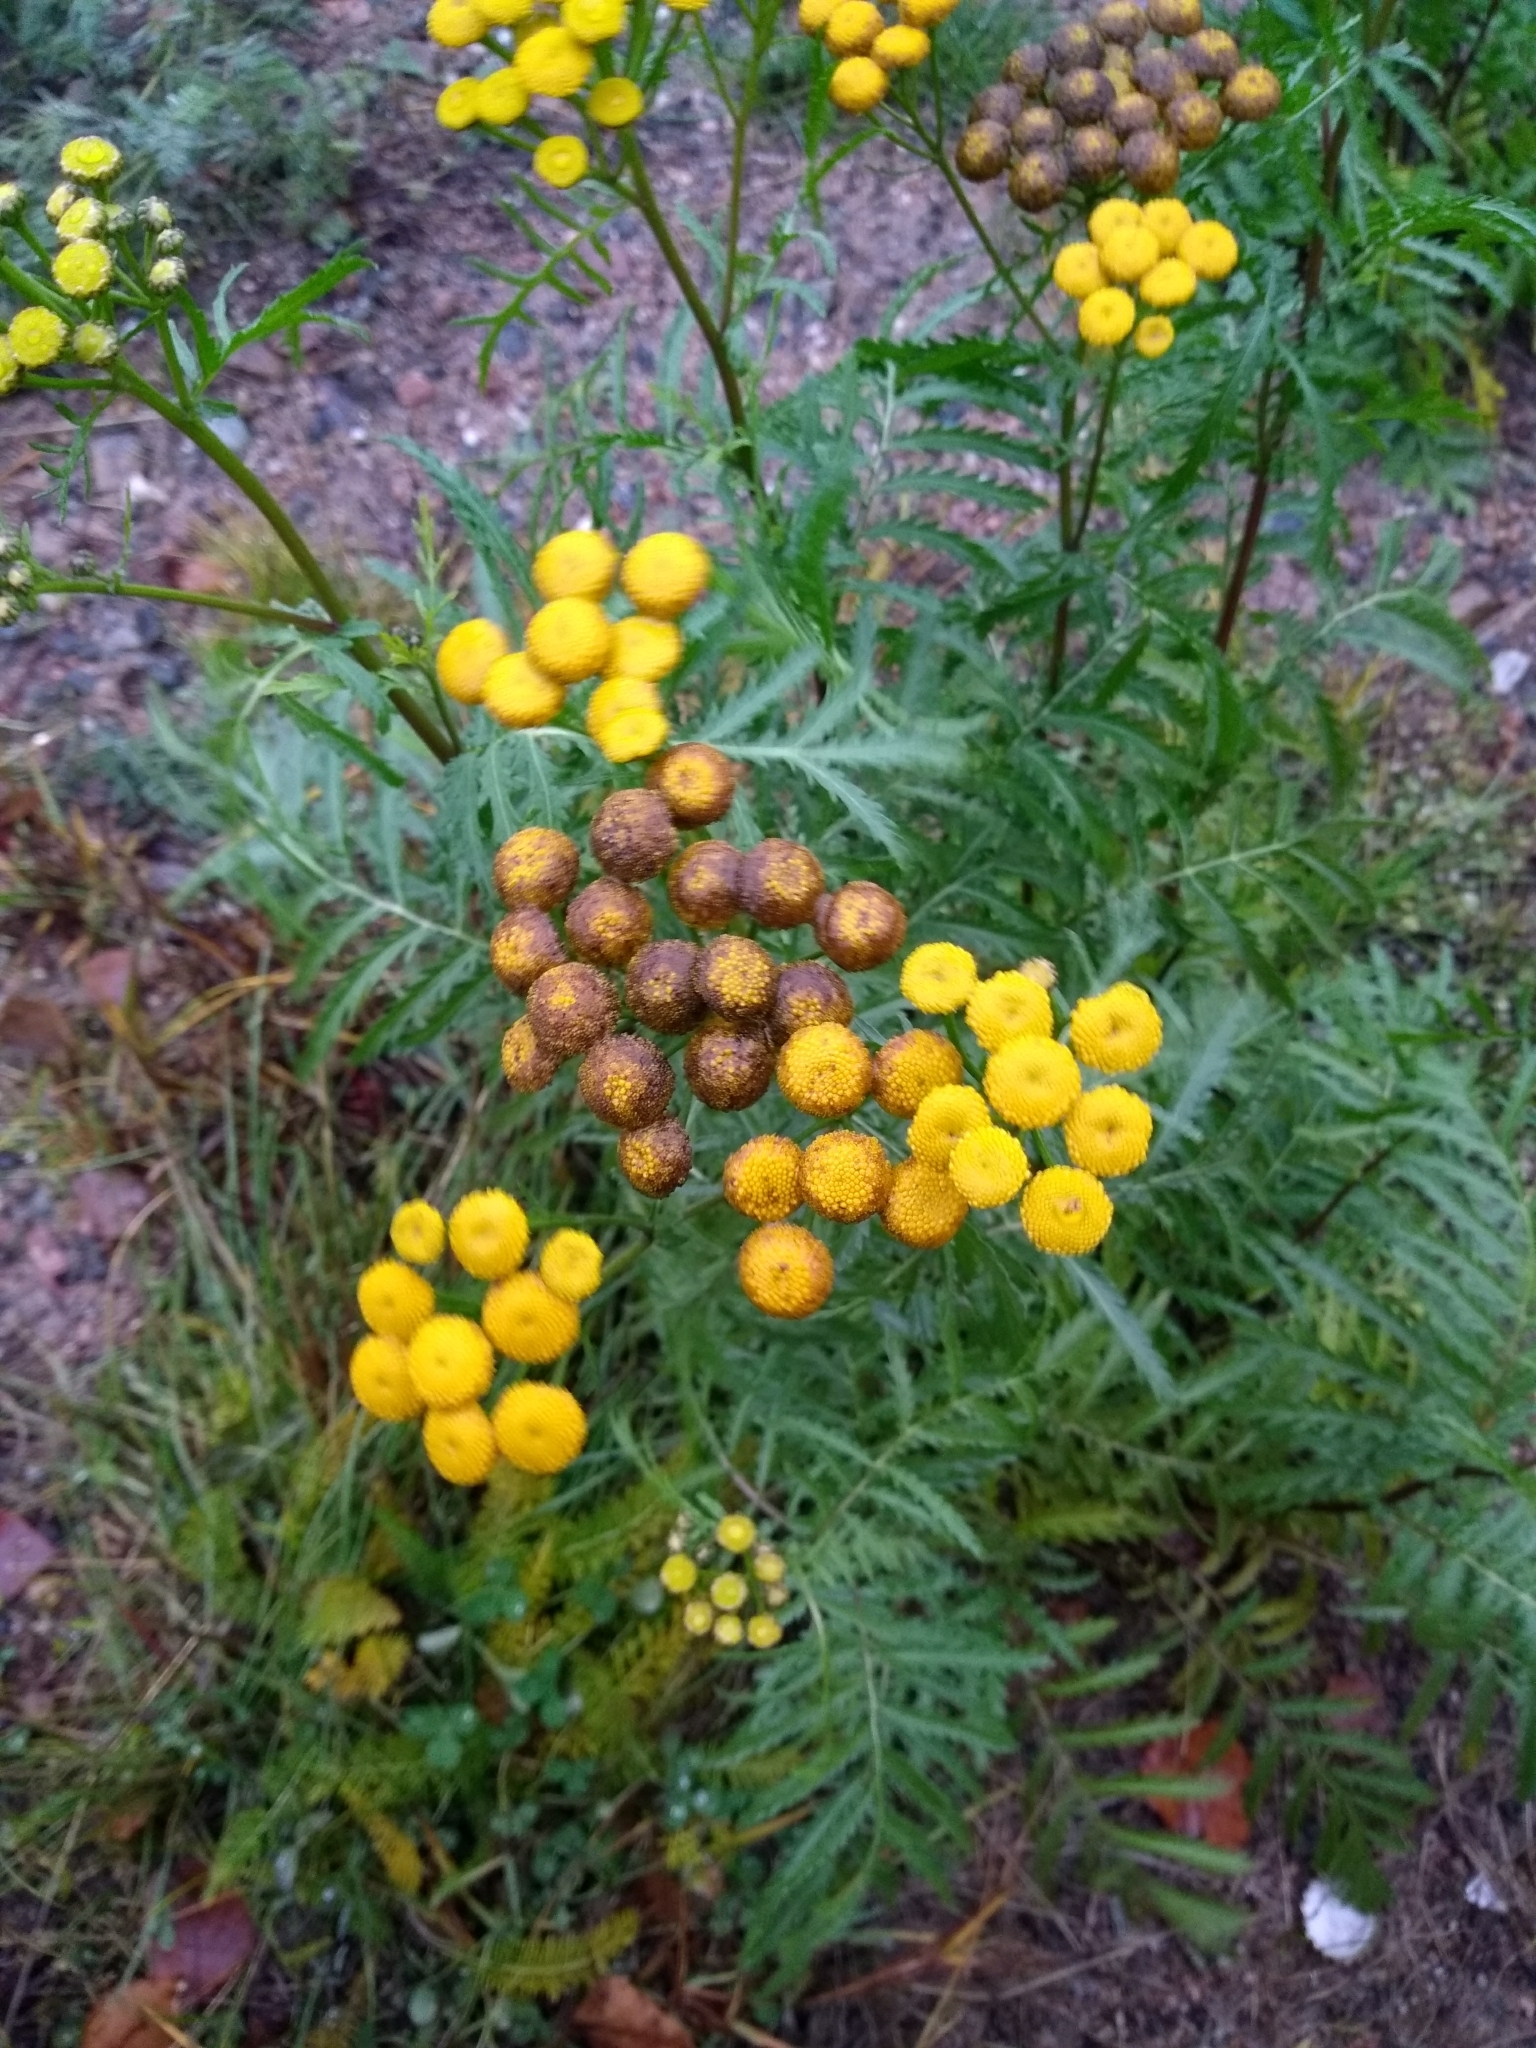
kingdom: Plantae
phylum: Tracheophyta
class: Magnoliopsida
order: Asterales
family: Asteraceae
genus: Tanacetum
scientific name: Tanacetum vulgare
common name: Common tansy
